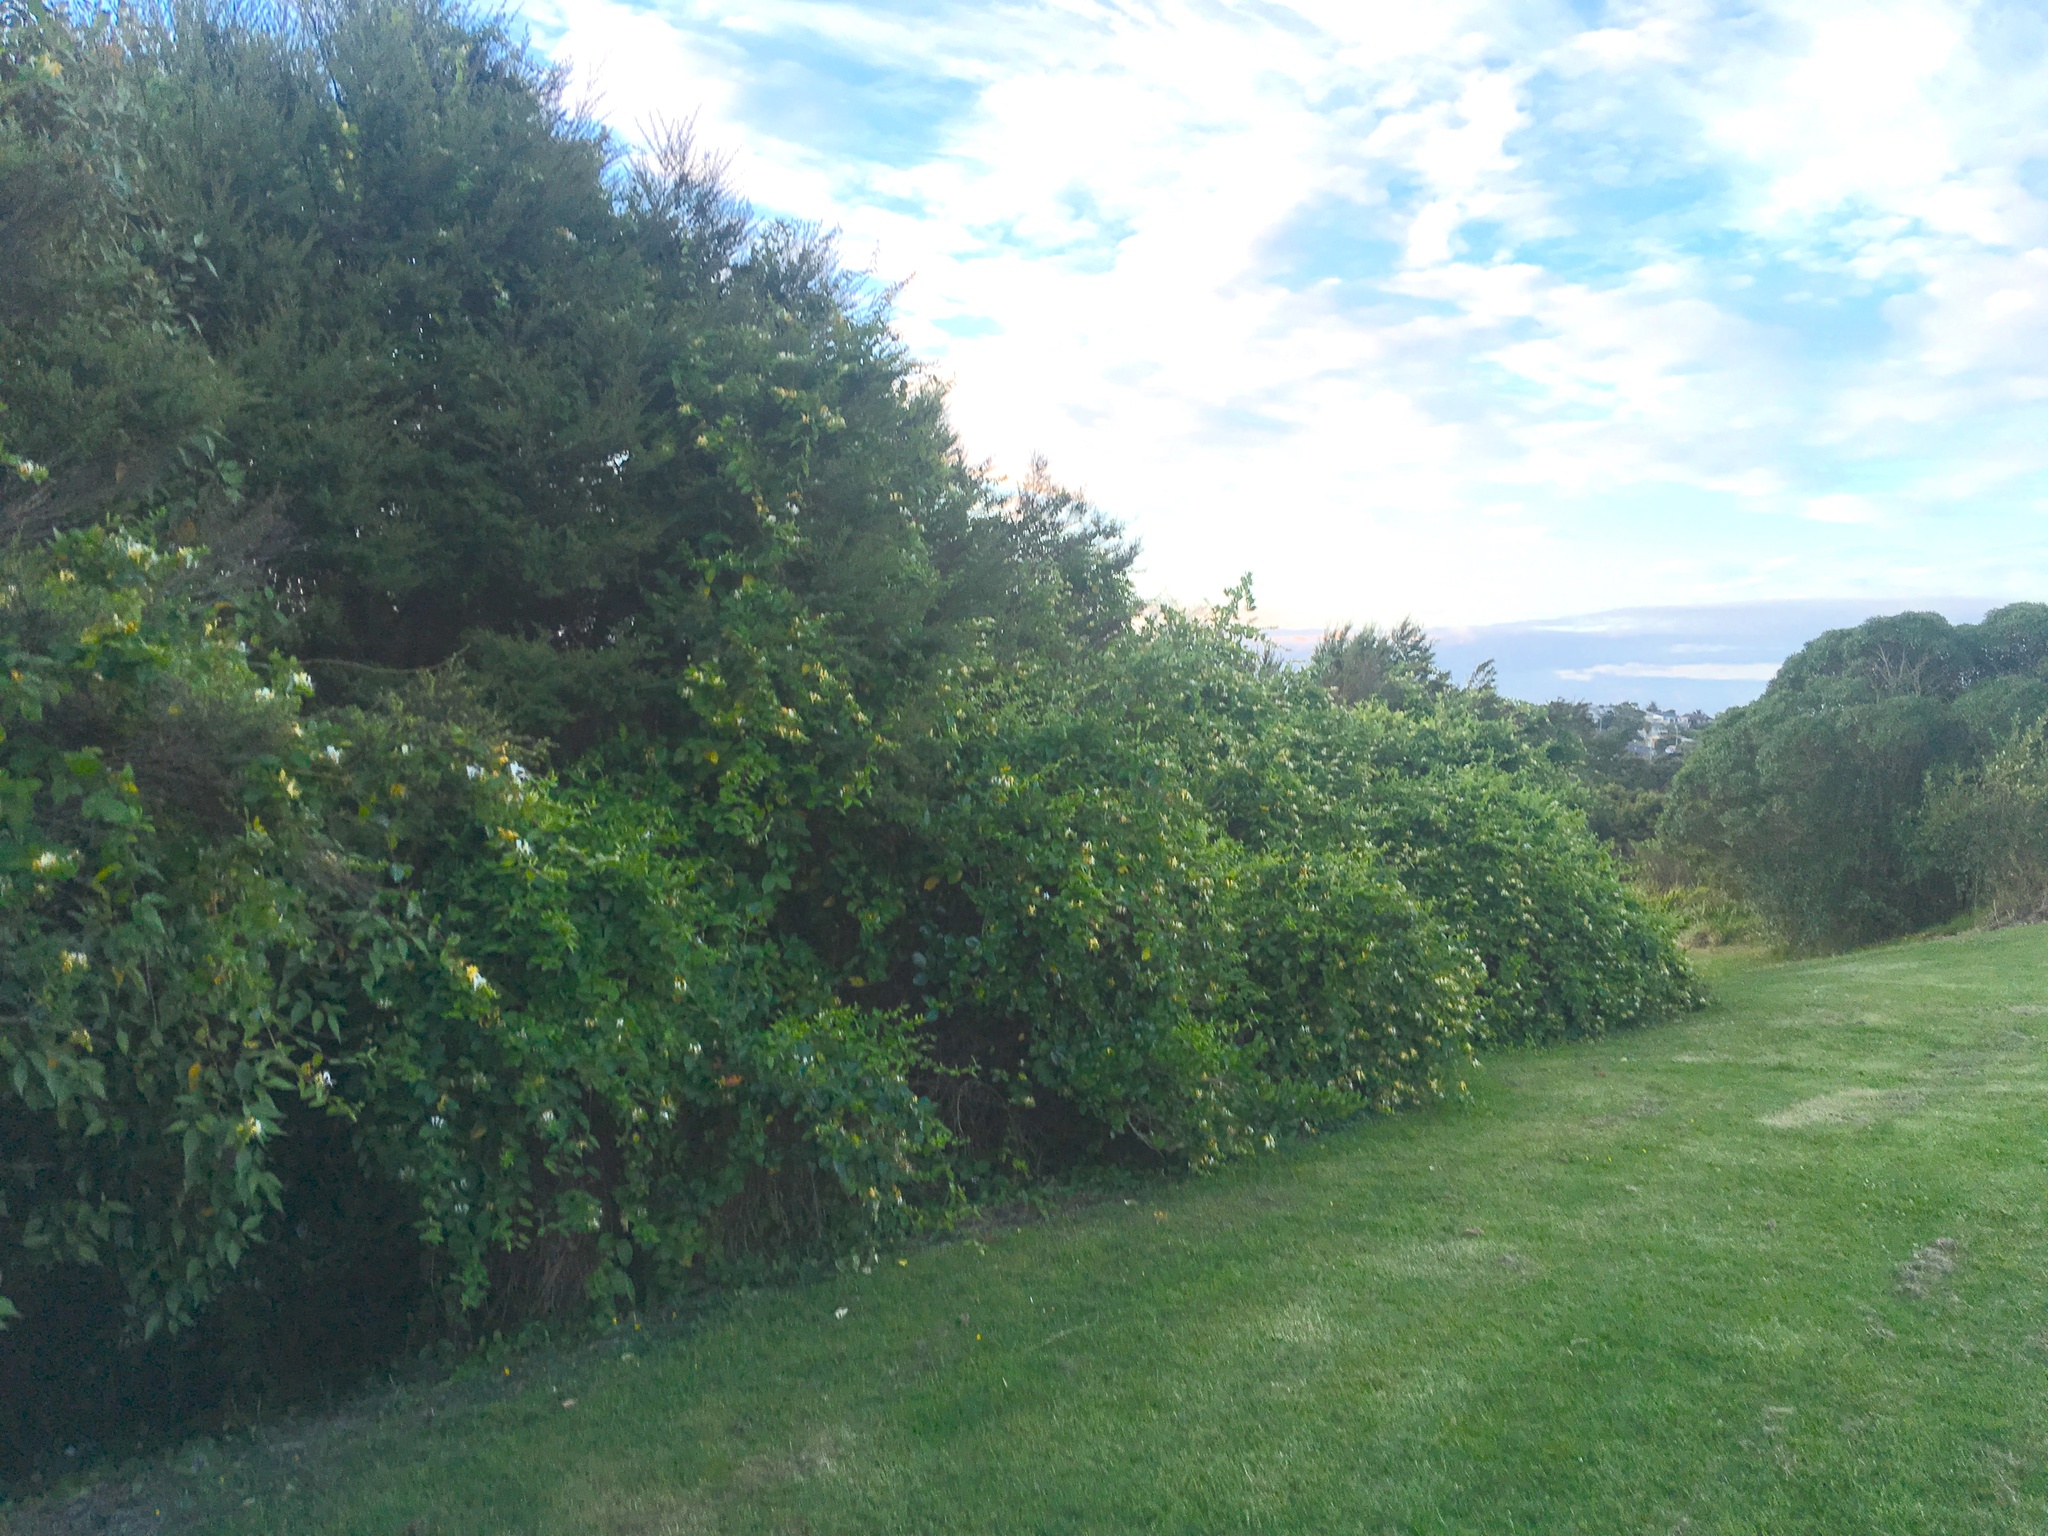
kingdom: Plantae
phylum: Tracheophyta
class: Magnoliopsida
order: Dipsacales
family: Caprifoliaceae
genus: Lonicera
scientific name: Lonicera japonica
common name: Japanese honeysuckle
